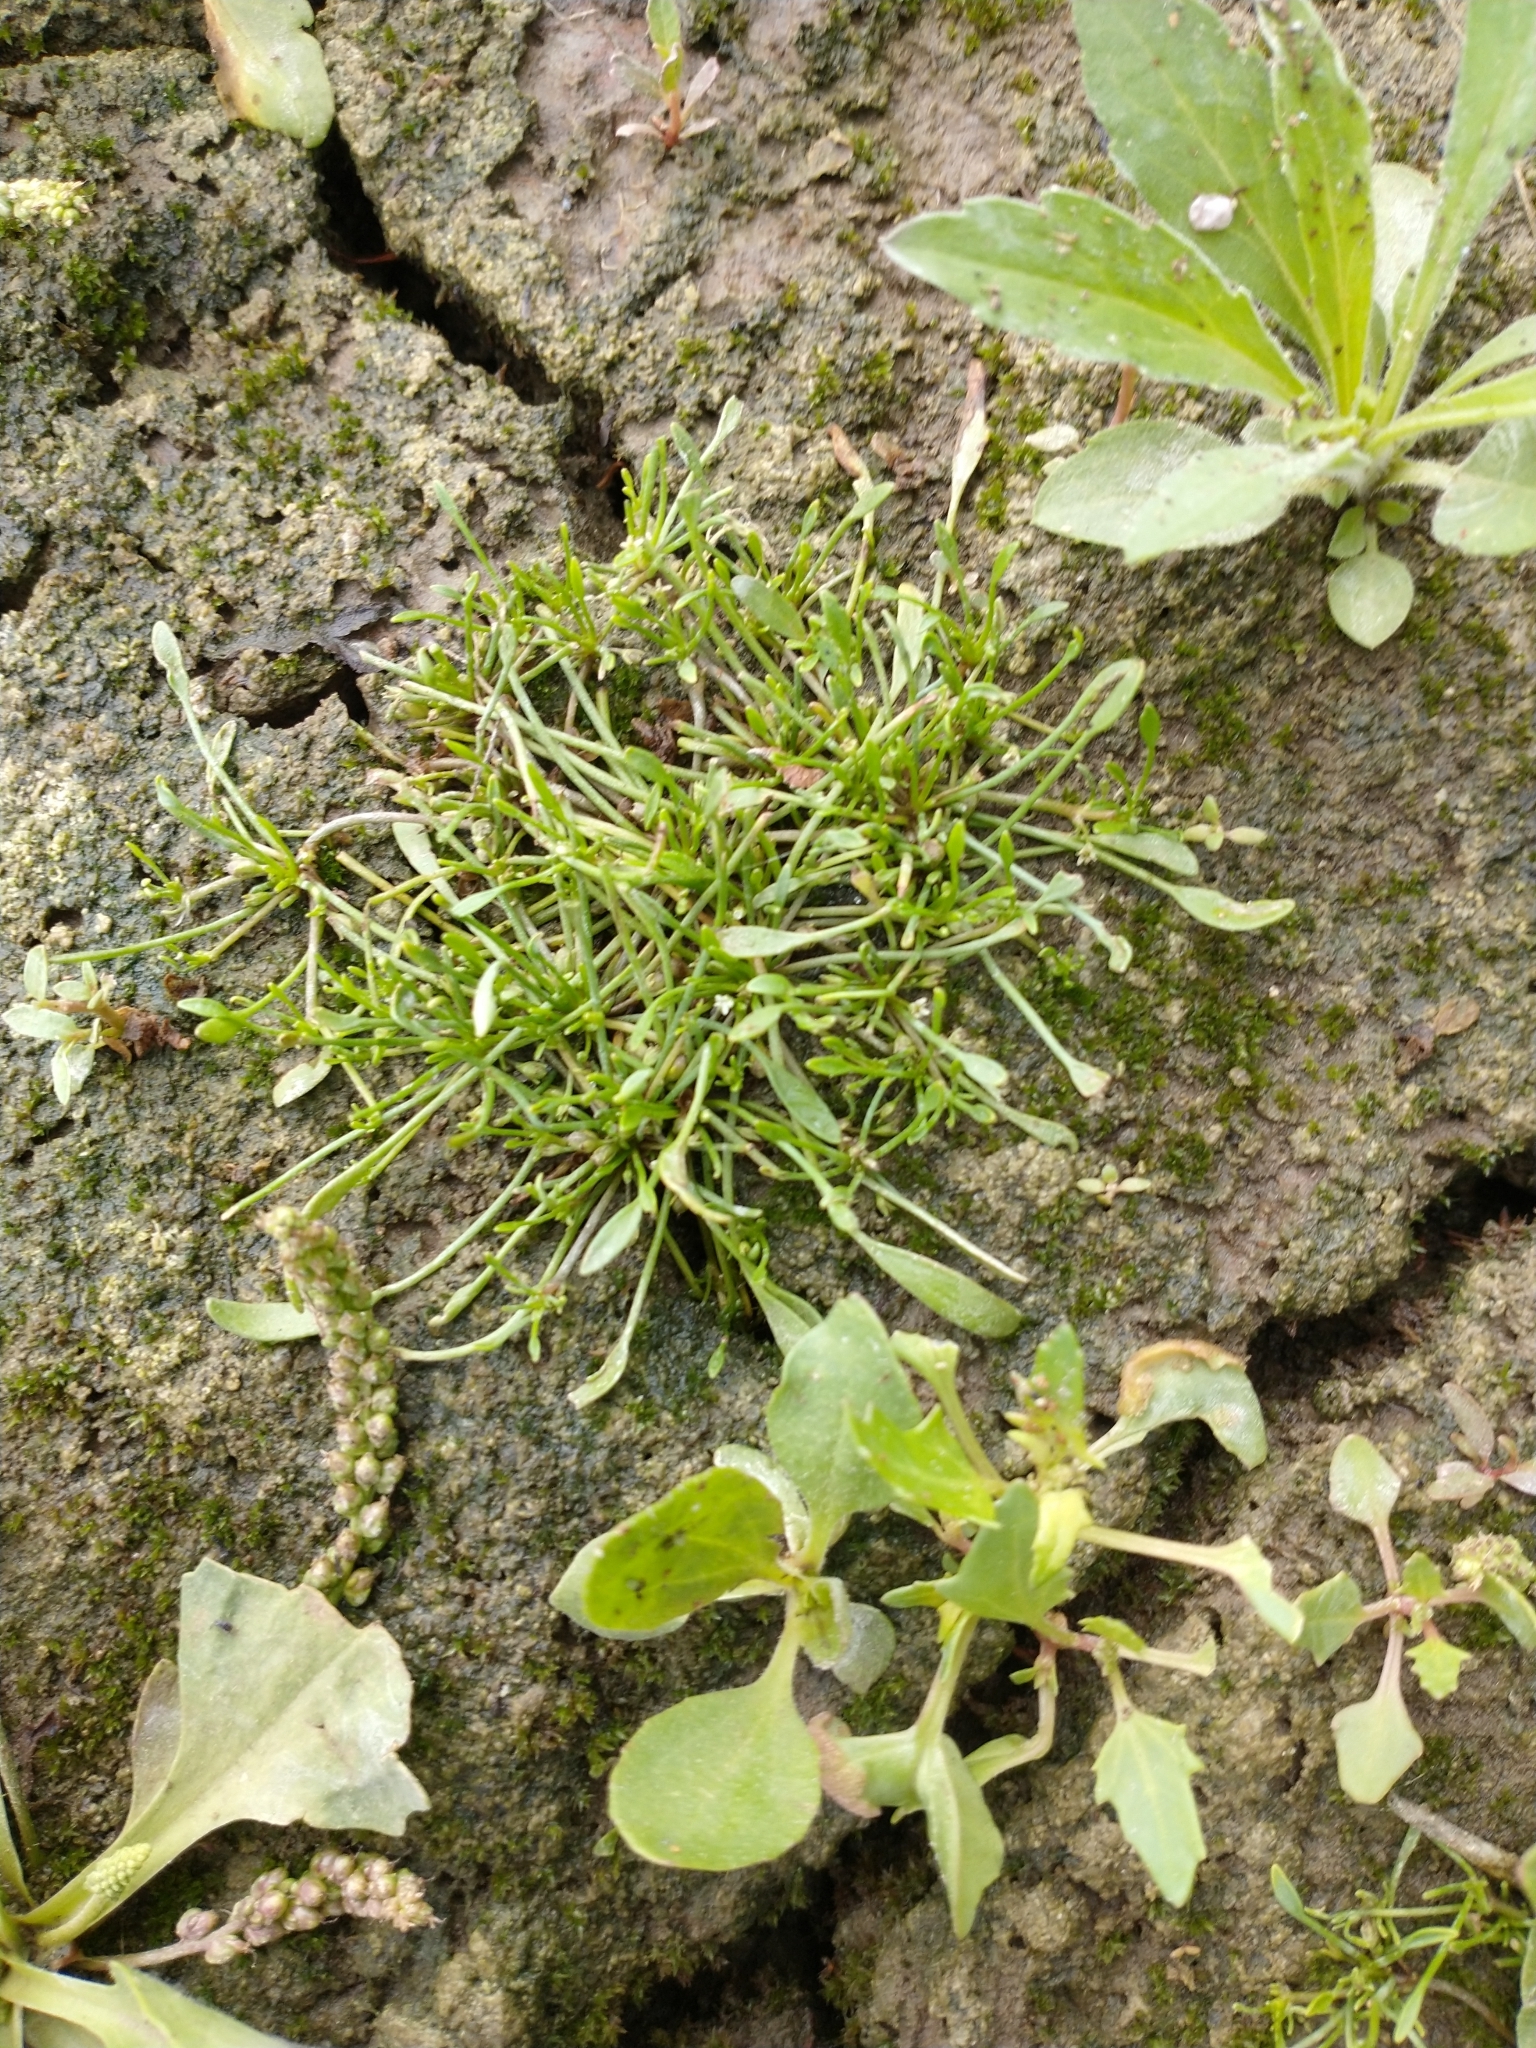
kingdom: Plantae
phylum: Tracheophyta
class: Magnoliopsida
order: Lamiales
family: Scrophulariaceae
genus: Limosella
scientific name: Limosella aquatica
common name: Mudwort
